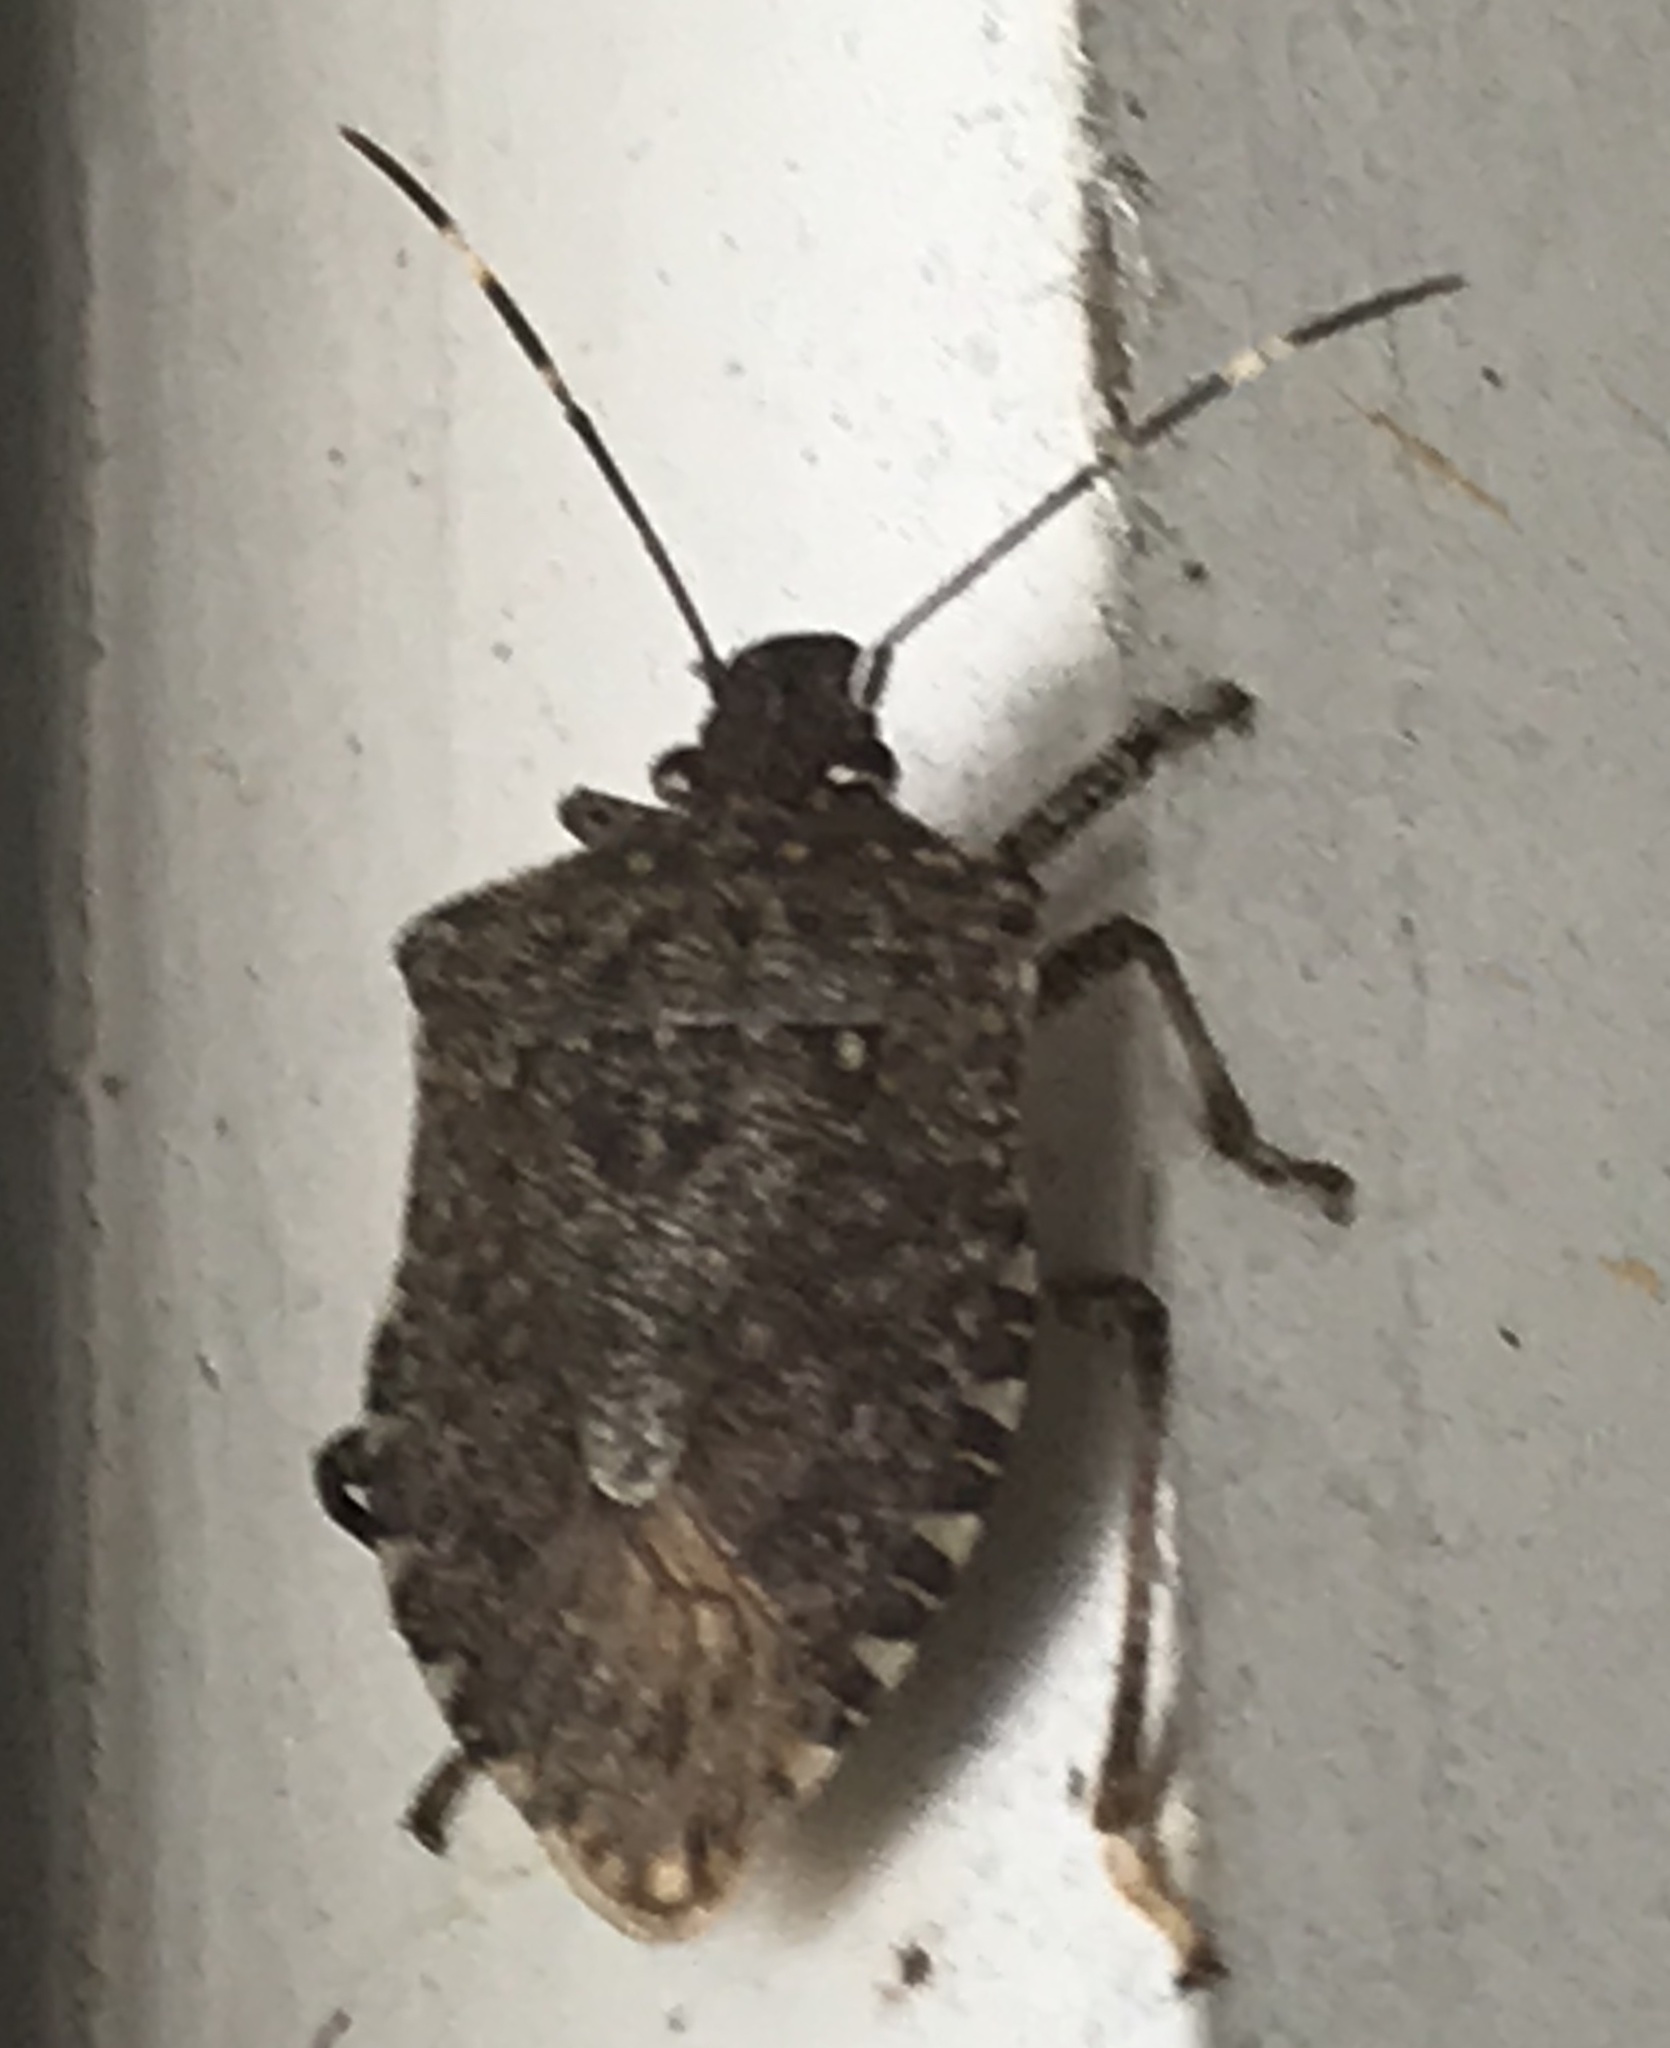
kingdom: Animalia
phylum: Arthropoda
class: Insecta
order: Hemiptera
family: Pentatomidae
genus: Halyomorpha
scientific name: Halyomorpha halys
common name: Brown marmorated stink bug
